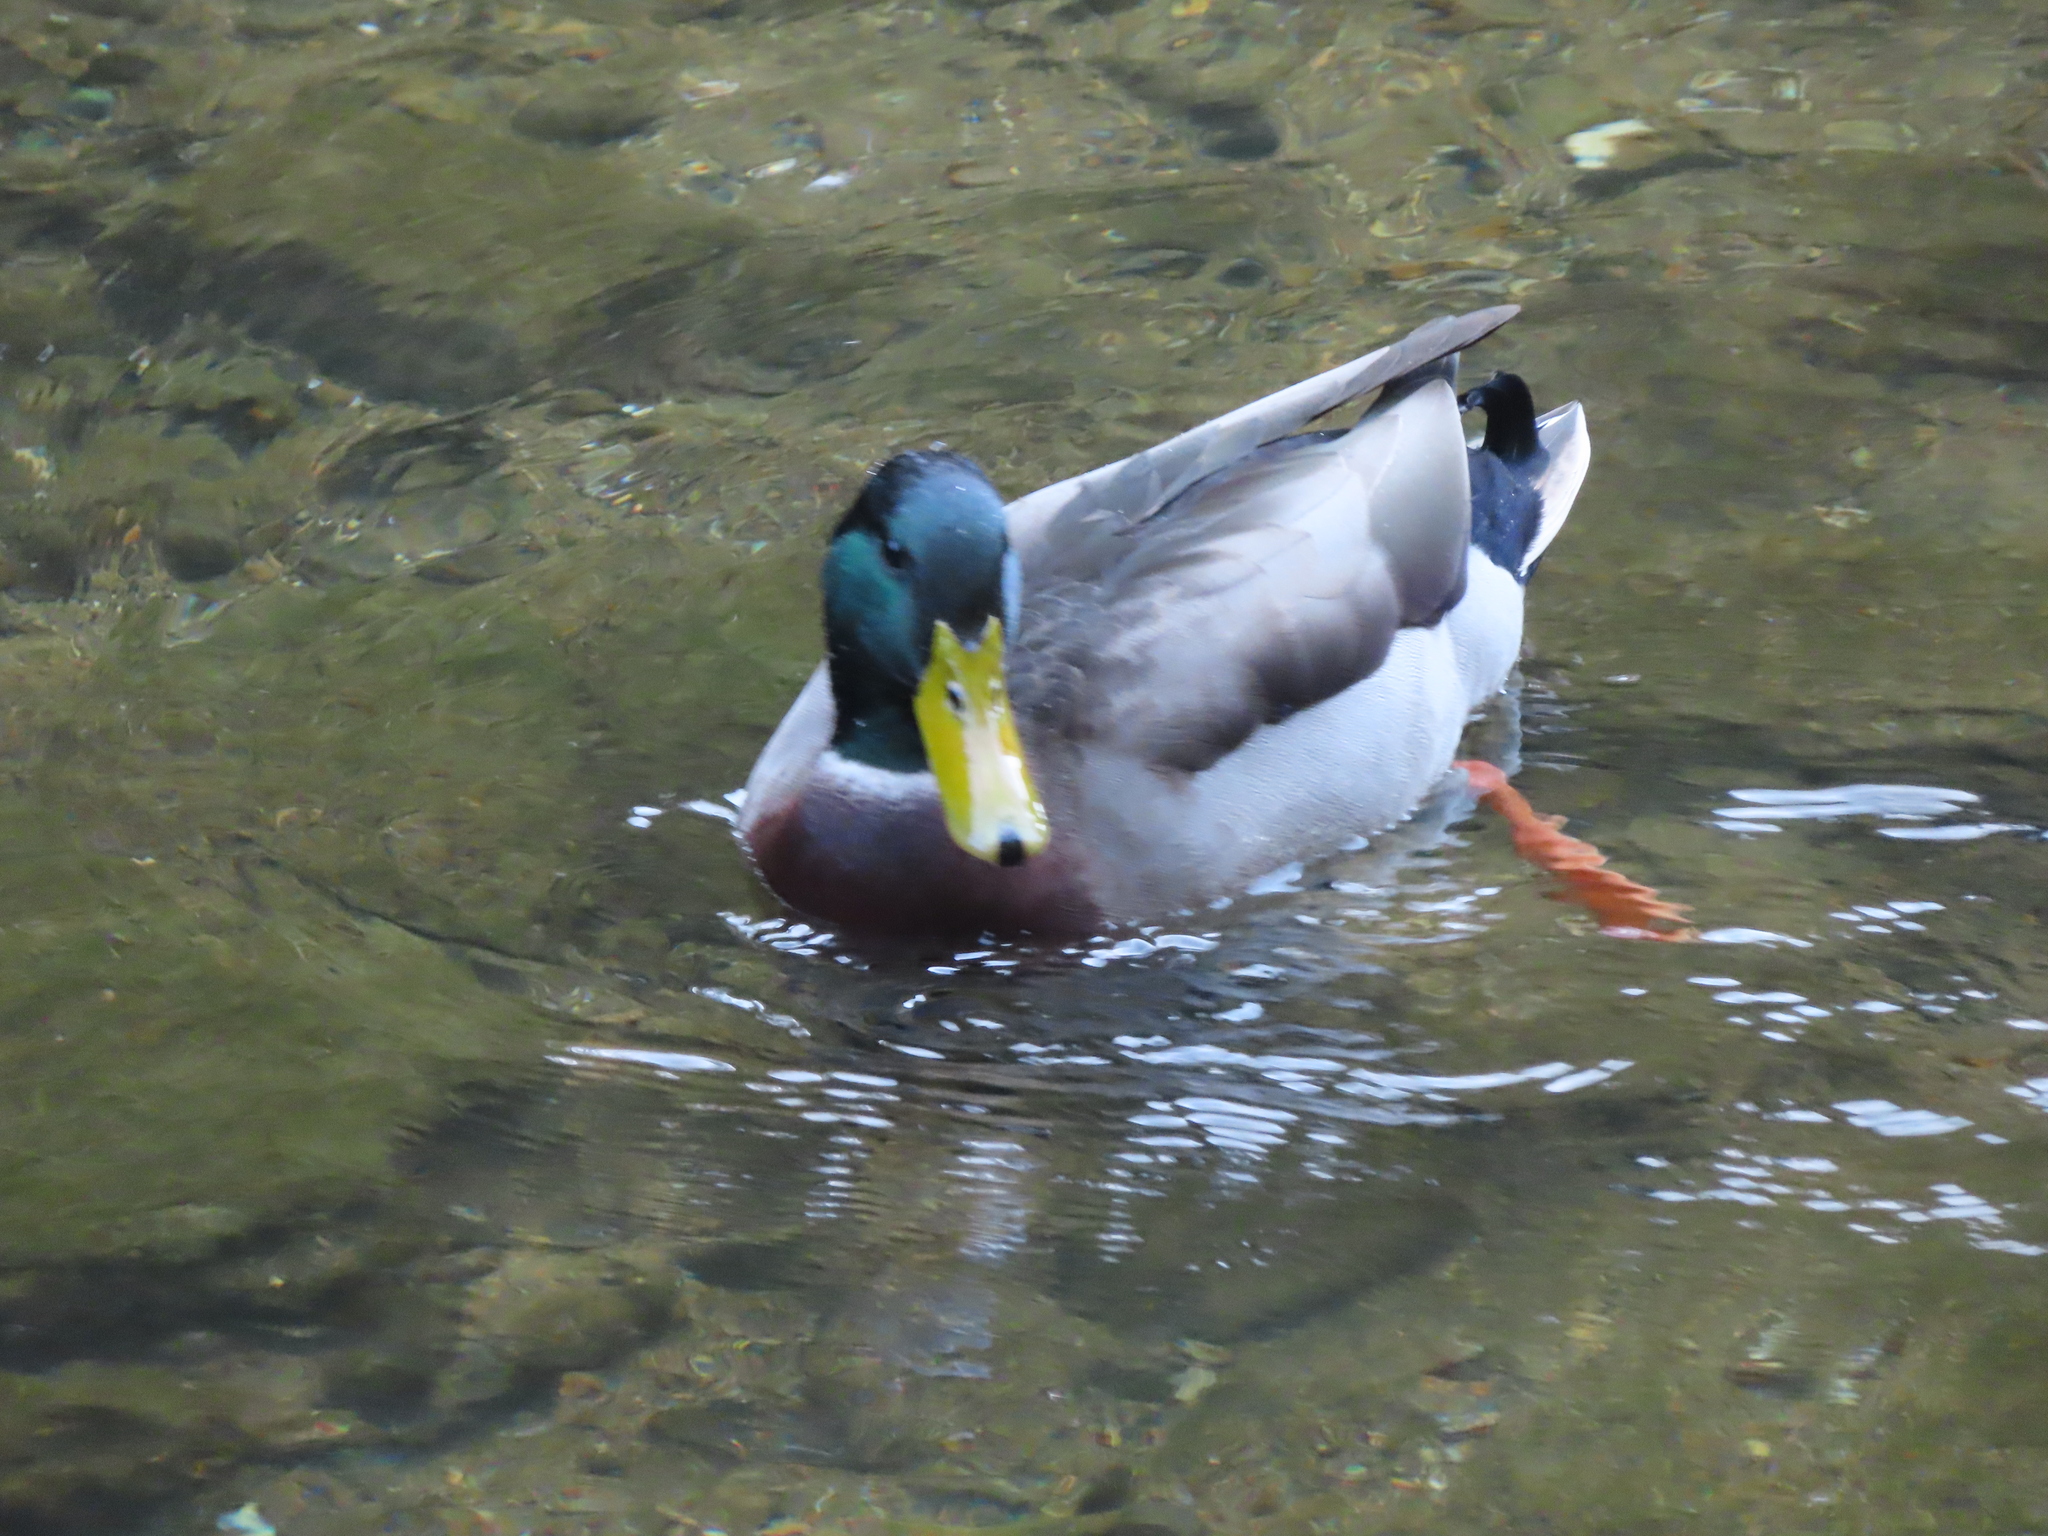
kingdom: Animalia
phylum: Chordata
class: Aves
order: Anseriformes
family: Anatidae
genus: Anas
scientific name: Anas platyrhynchos
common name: Mallard
